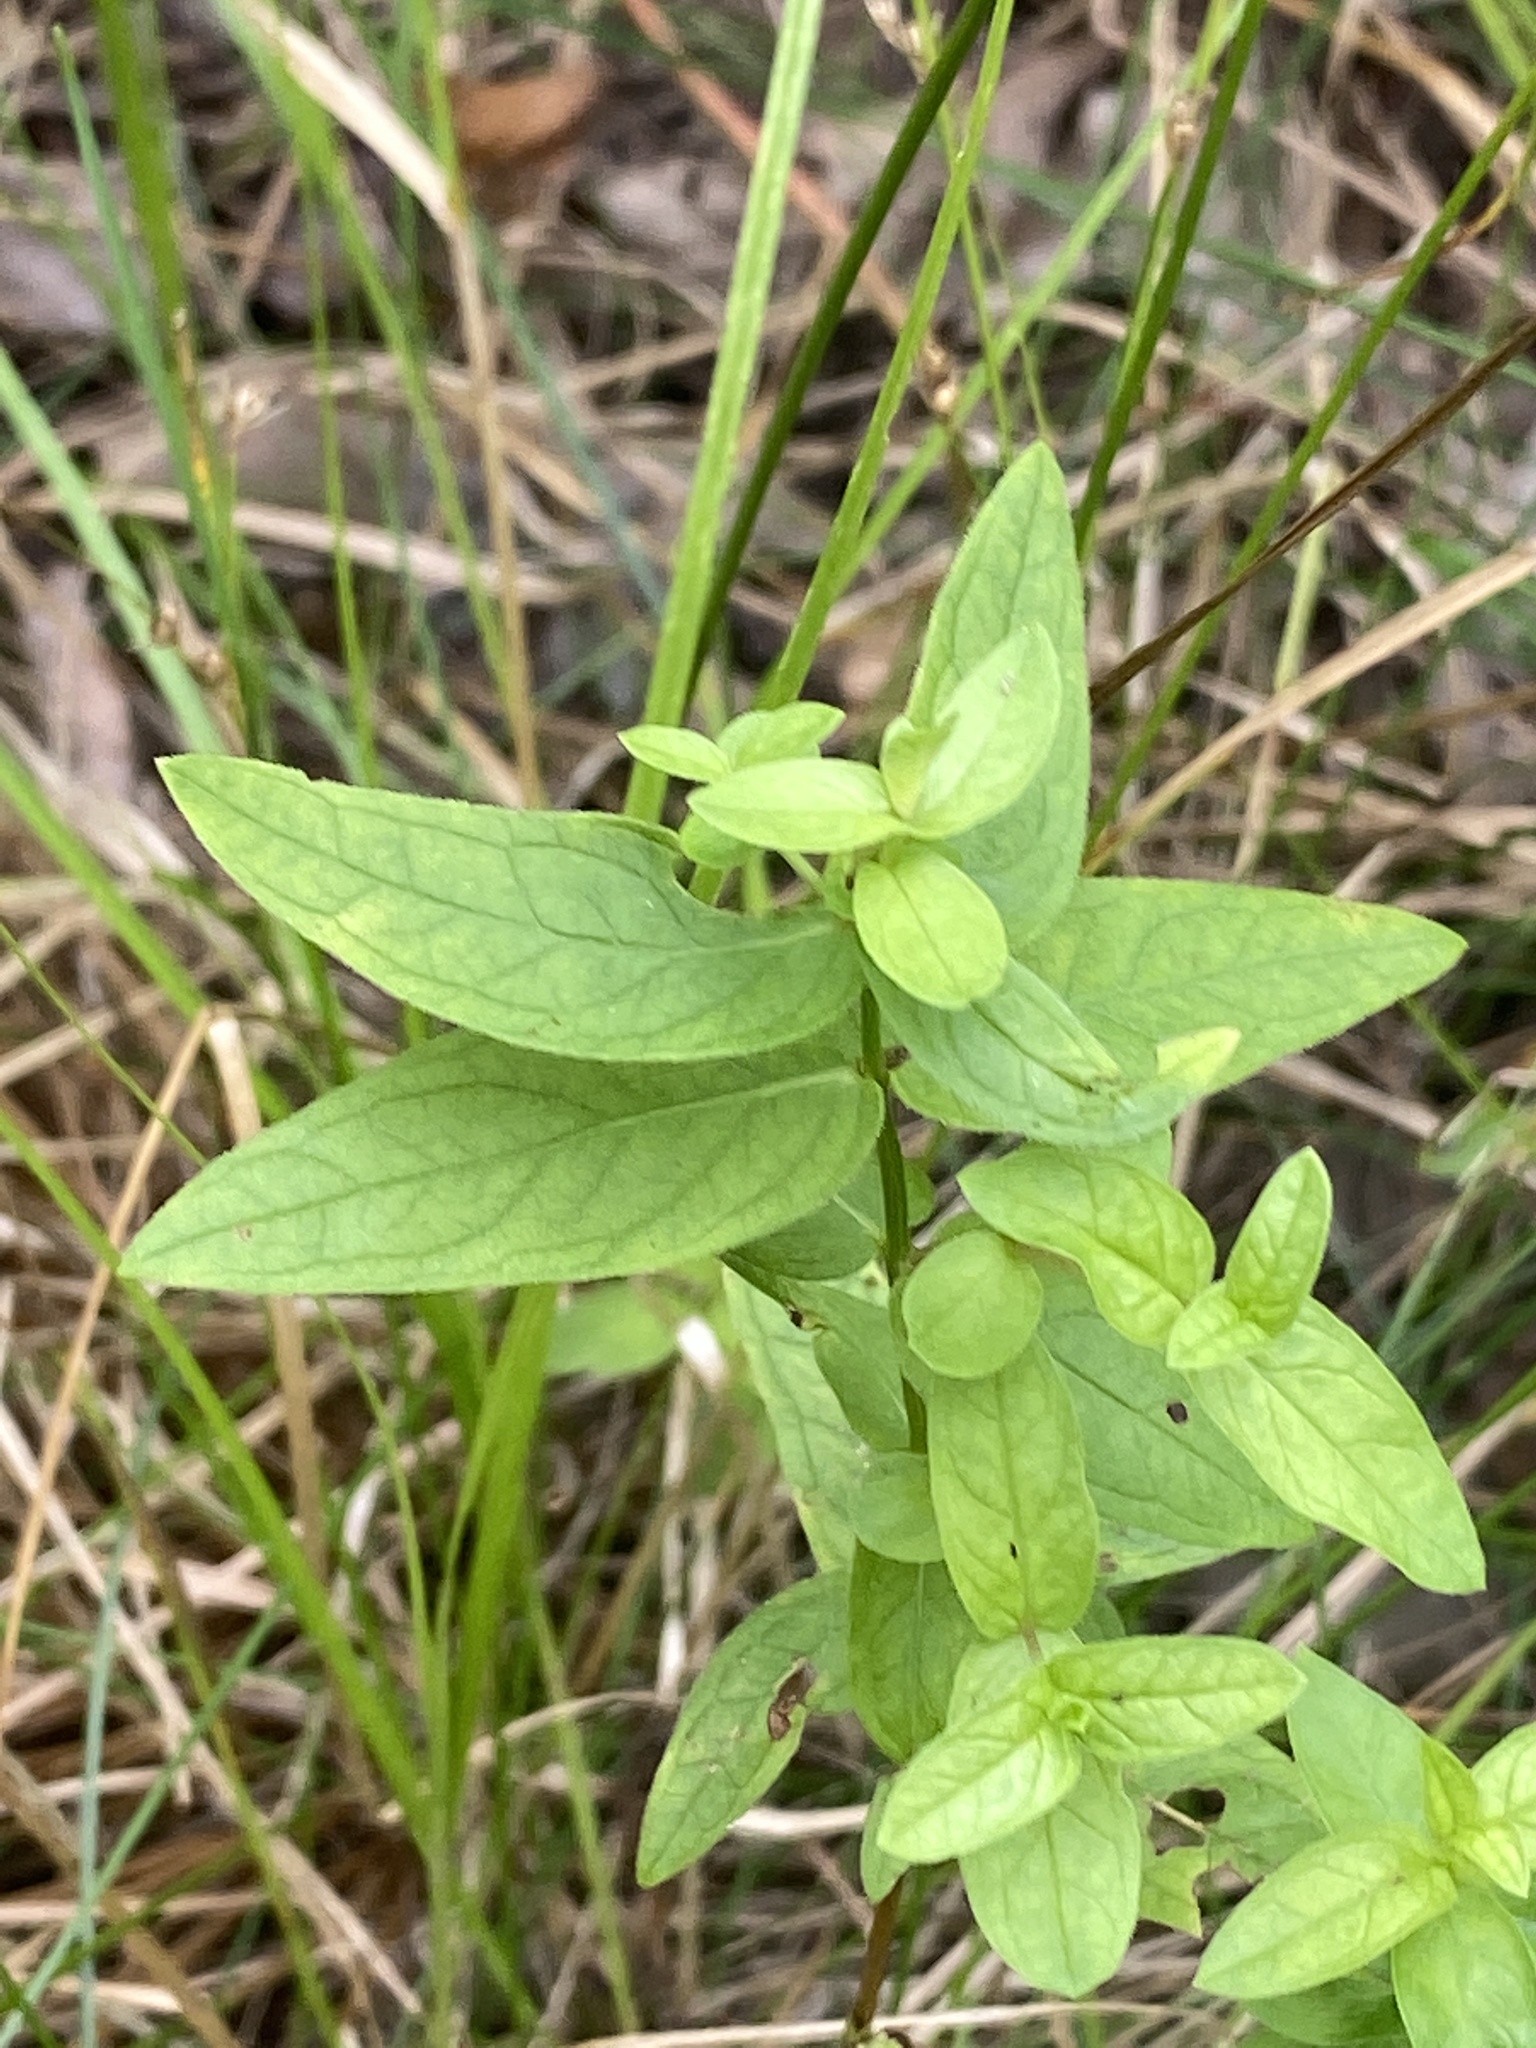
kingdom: Plantae
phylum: Tracheophyta
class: Magnoliopsida
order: Myrtales
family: Lythraceae
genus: Lythrum
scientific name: Lythrum salicaria
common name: Purple loosestrife
